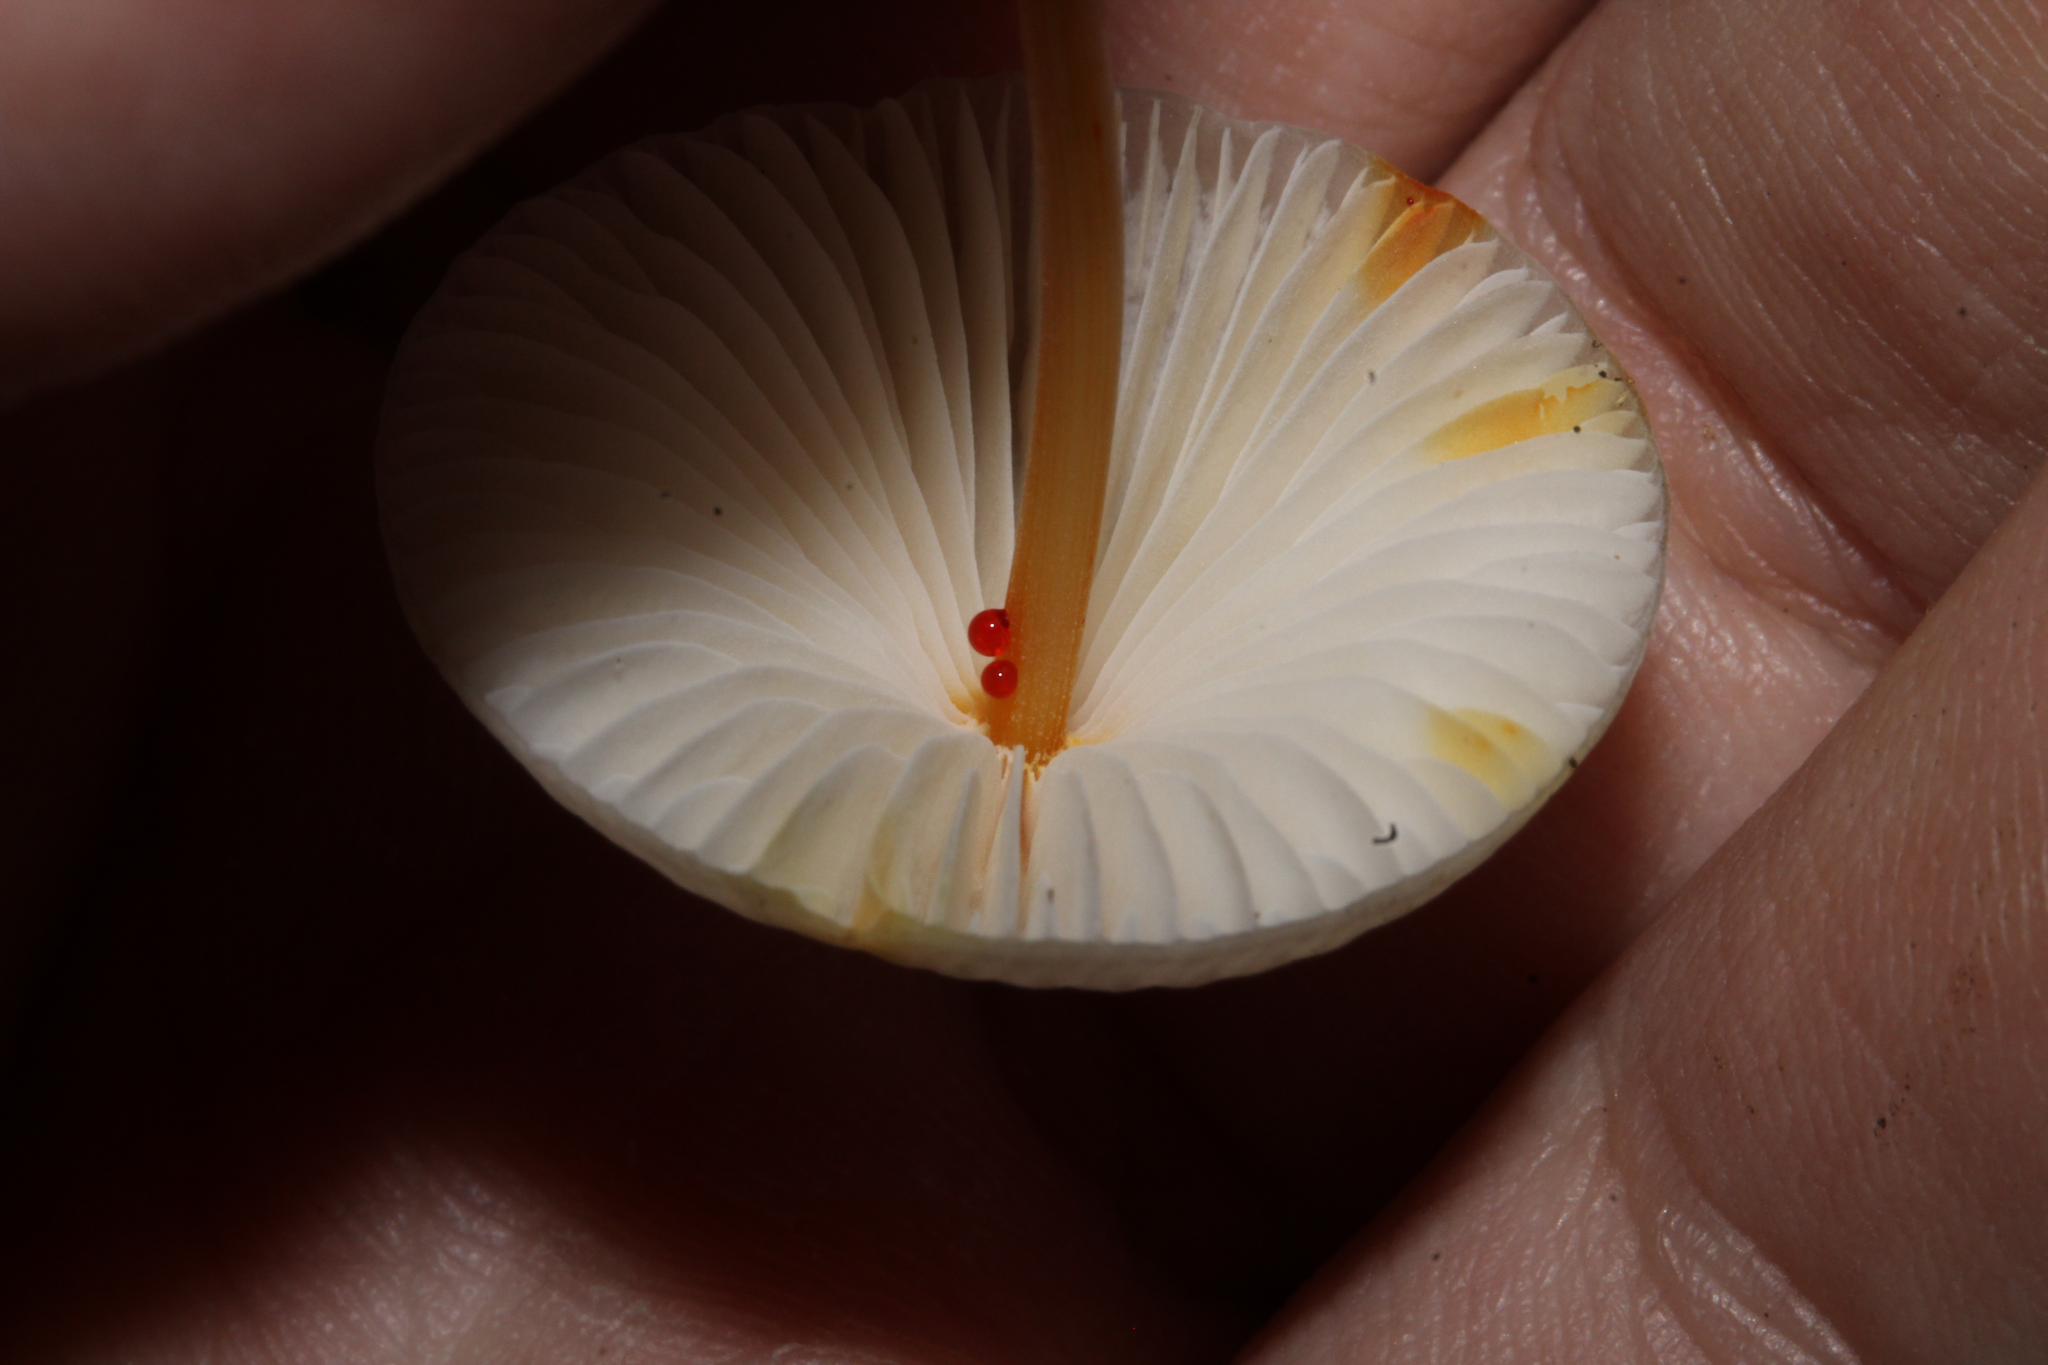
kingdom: Fungi
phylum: Basidiomycota
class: Agaricomycetes
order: Agaricales
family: Mycenaceae
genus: Mycena
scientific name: Mycena crocata
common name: Saffrondrop bonnet
